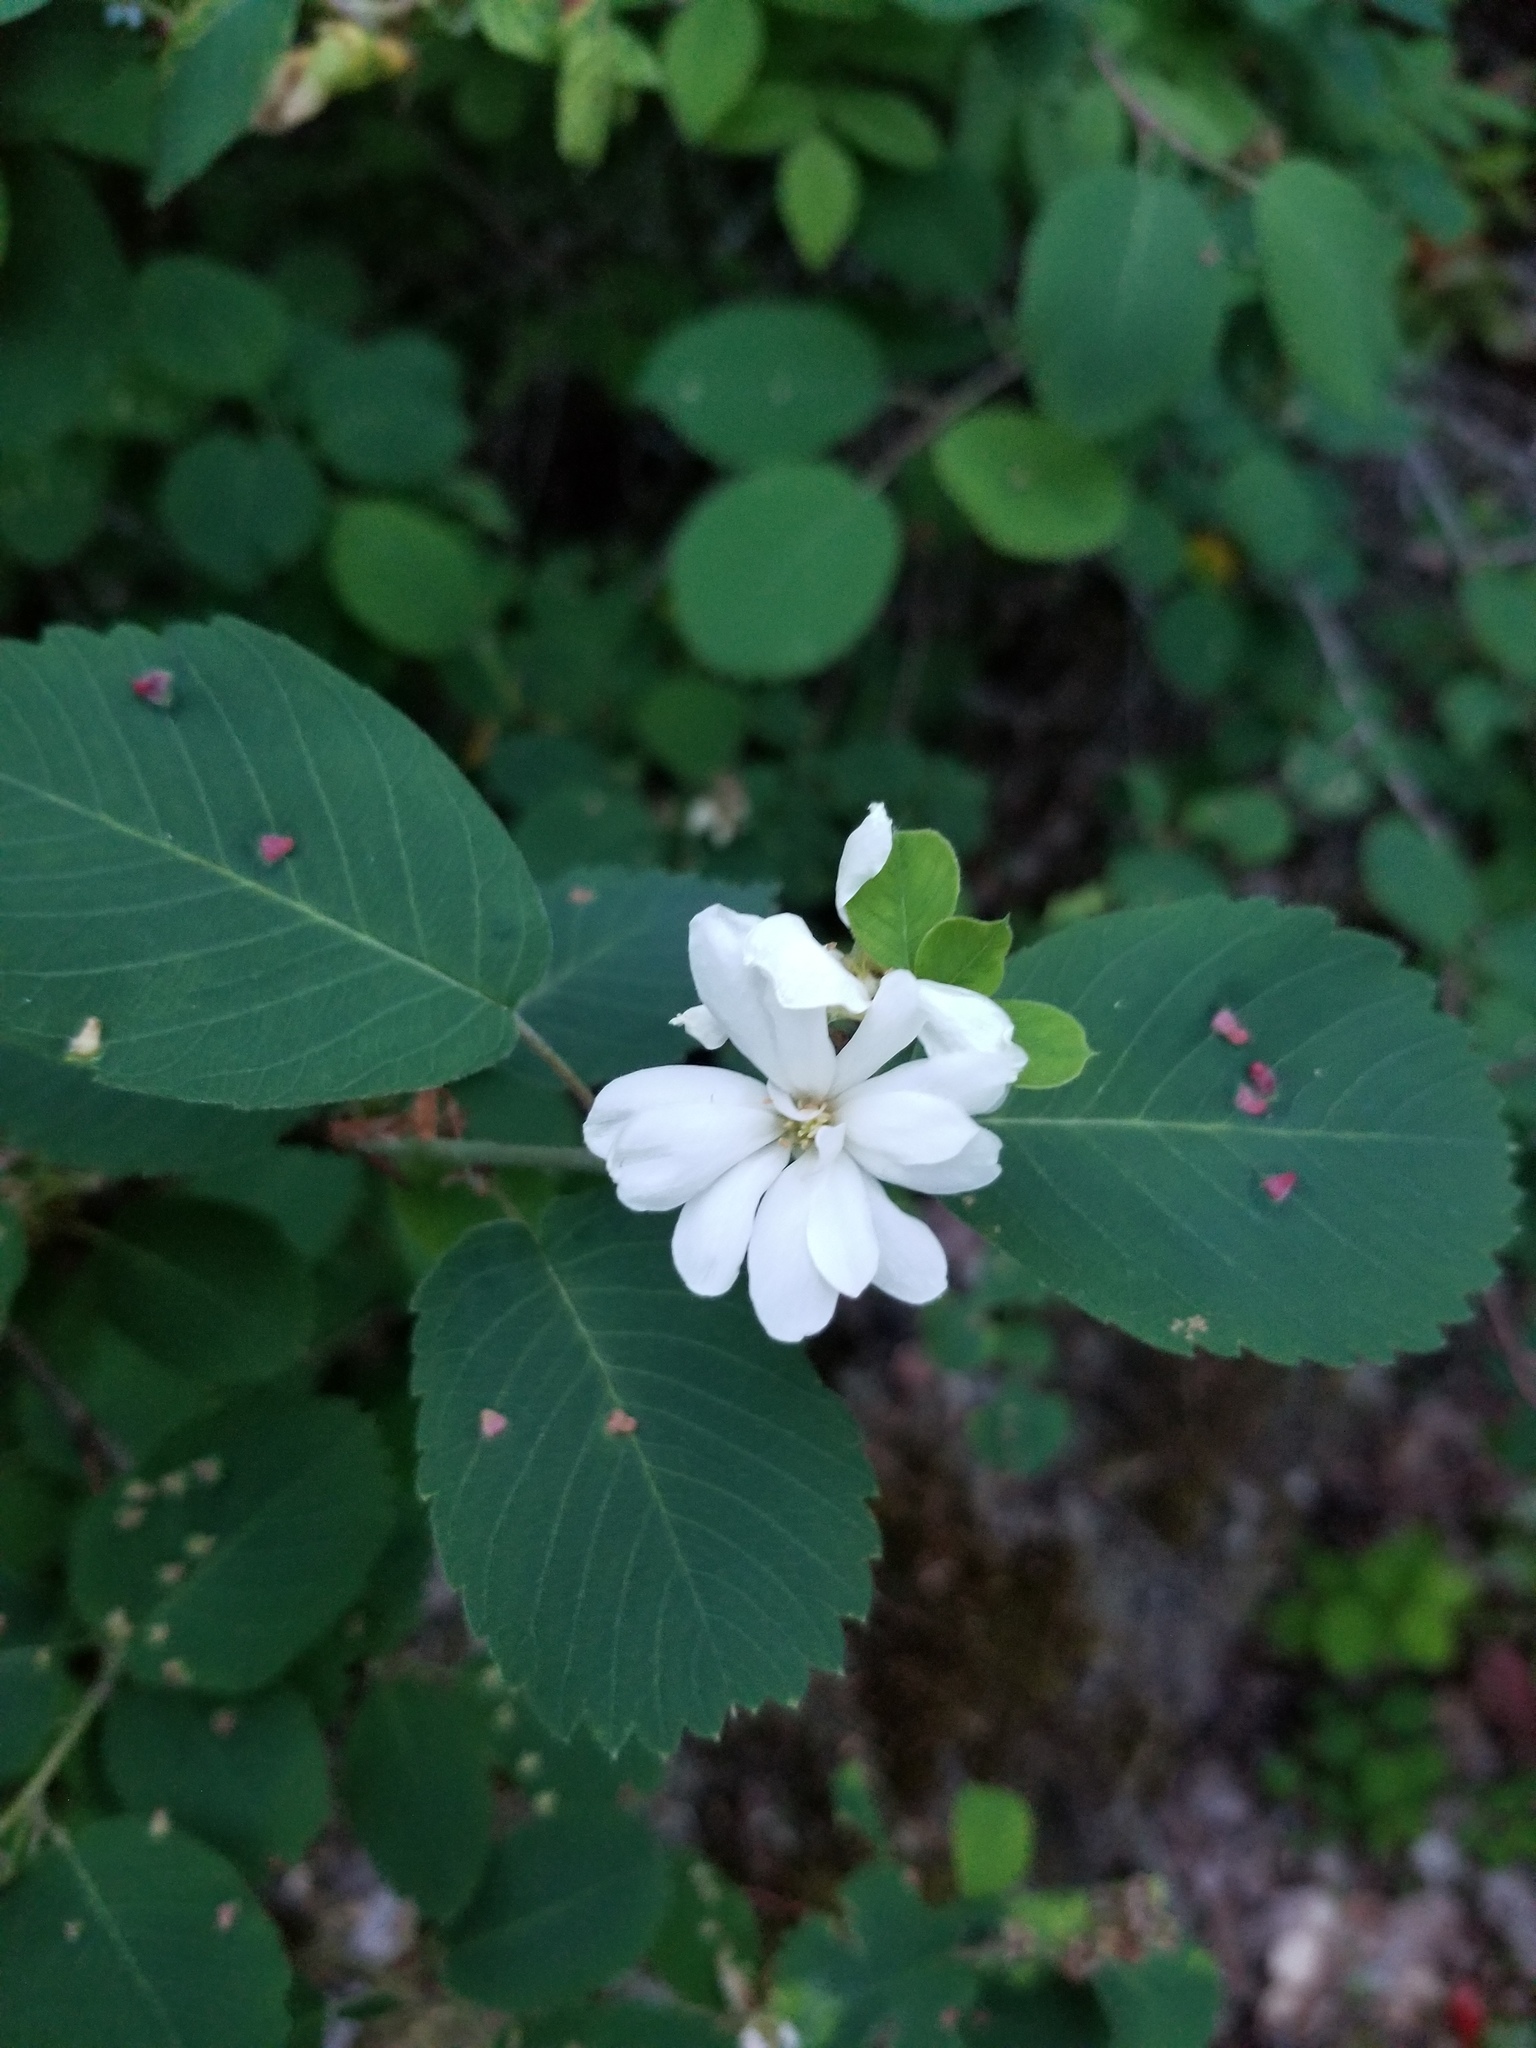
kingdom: Plantae
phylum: Tracheophyta
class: Magnoliopsida
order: Rosales
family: Rosaceae
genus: Amelanchier
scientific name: Amelanchier alnifolia
